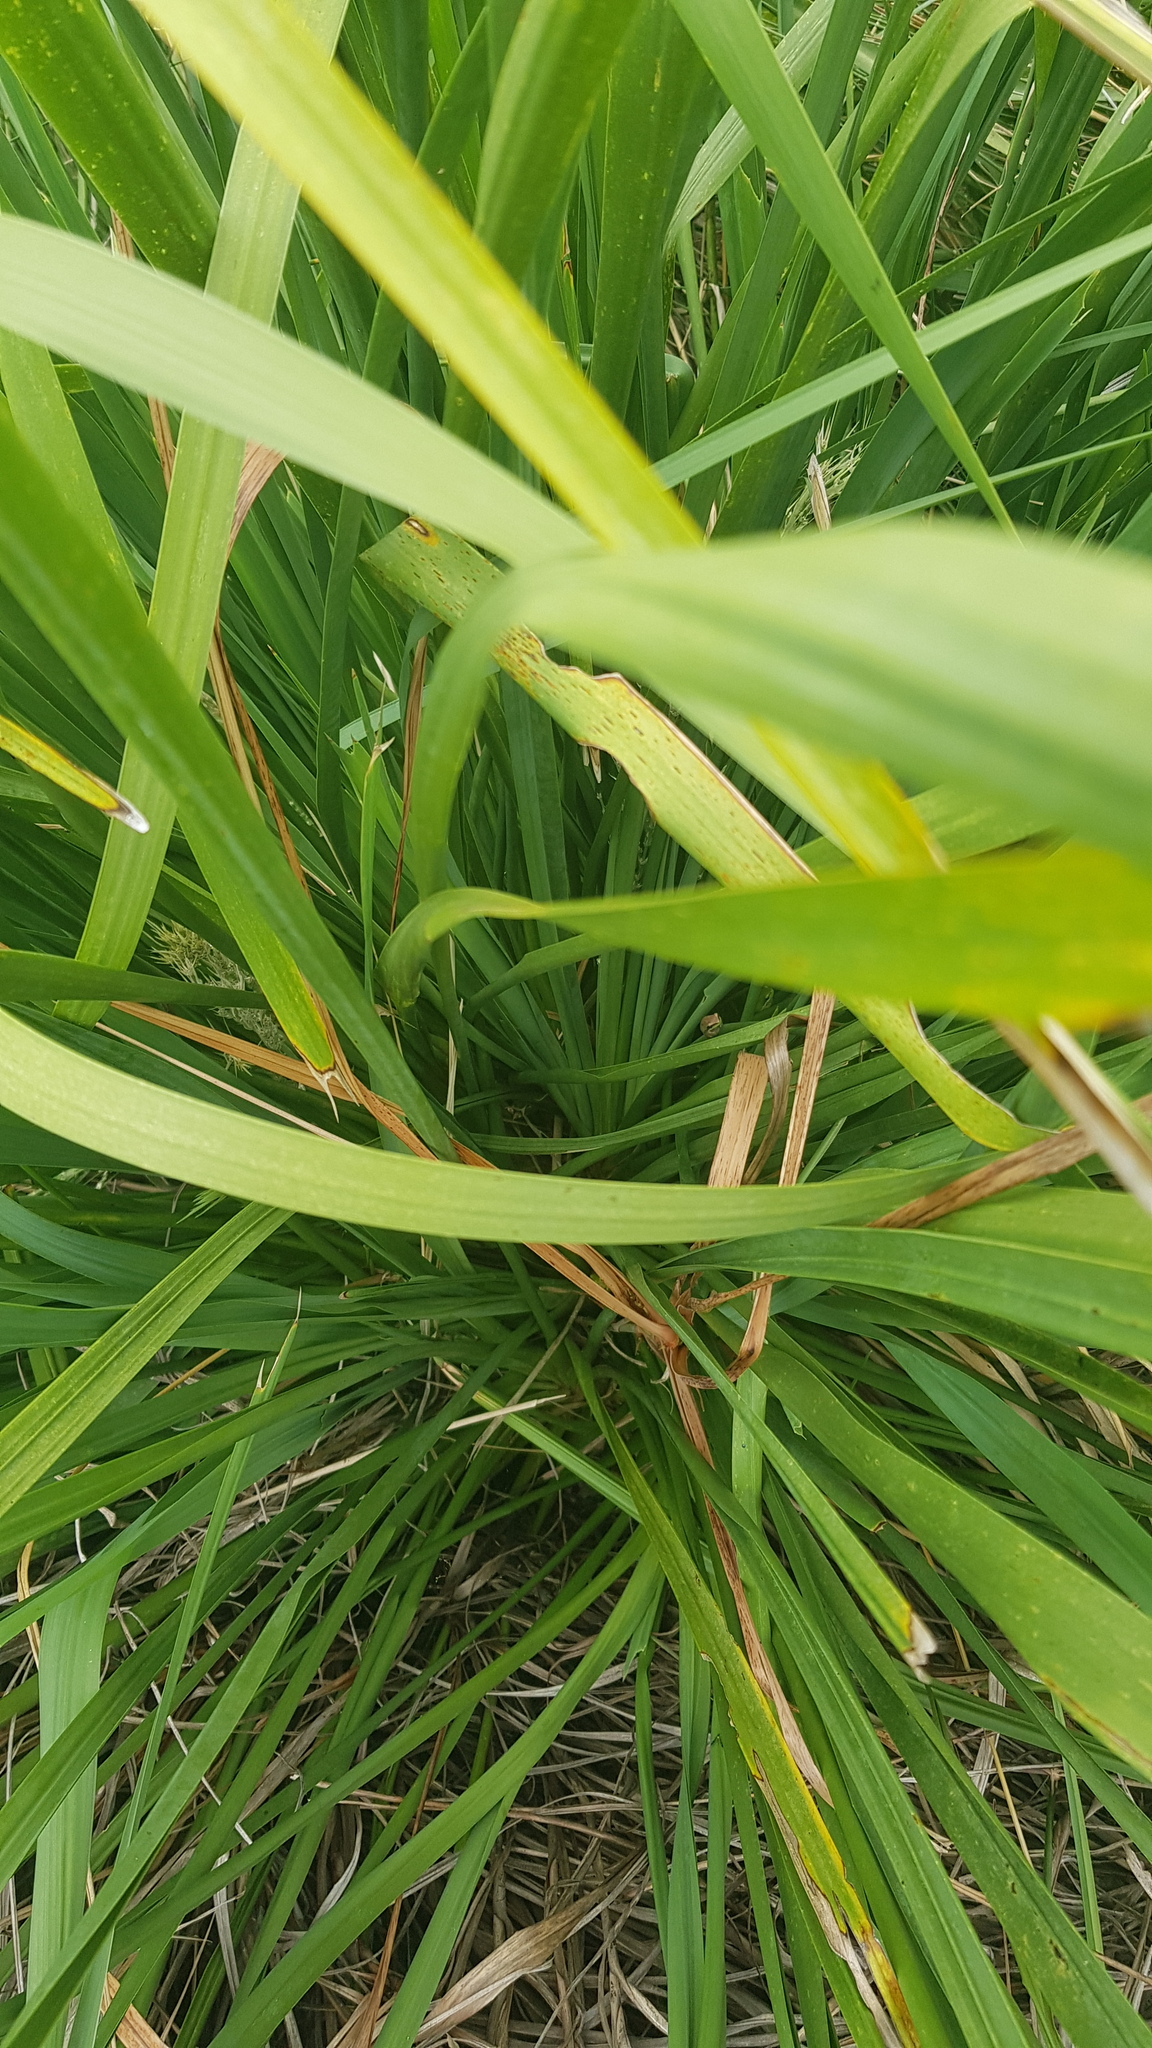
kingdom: Animalia
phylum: Chordata
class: Amphibia
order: Anura
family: Pelodryadidae
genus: Litoria
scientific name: Litoria fallax
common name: Eastern dwarf treefrog
